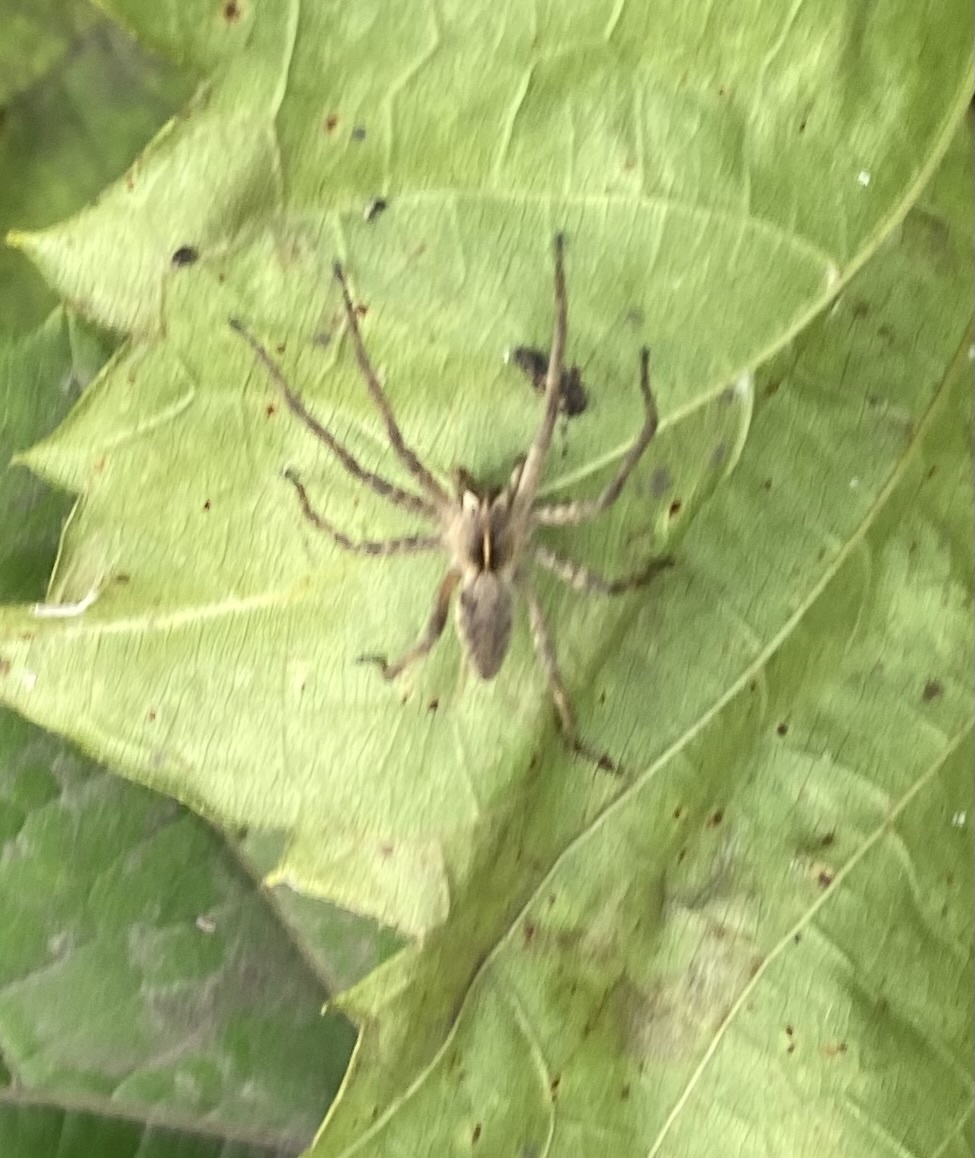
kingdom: Animalia
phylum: Arthropoda
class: Arachnida
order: Araneae
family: Pisauridae
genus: Pisaura
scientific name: Pisaura mirabilis
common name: Tent spider
